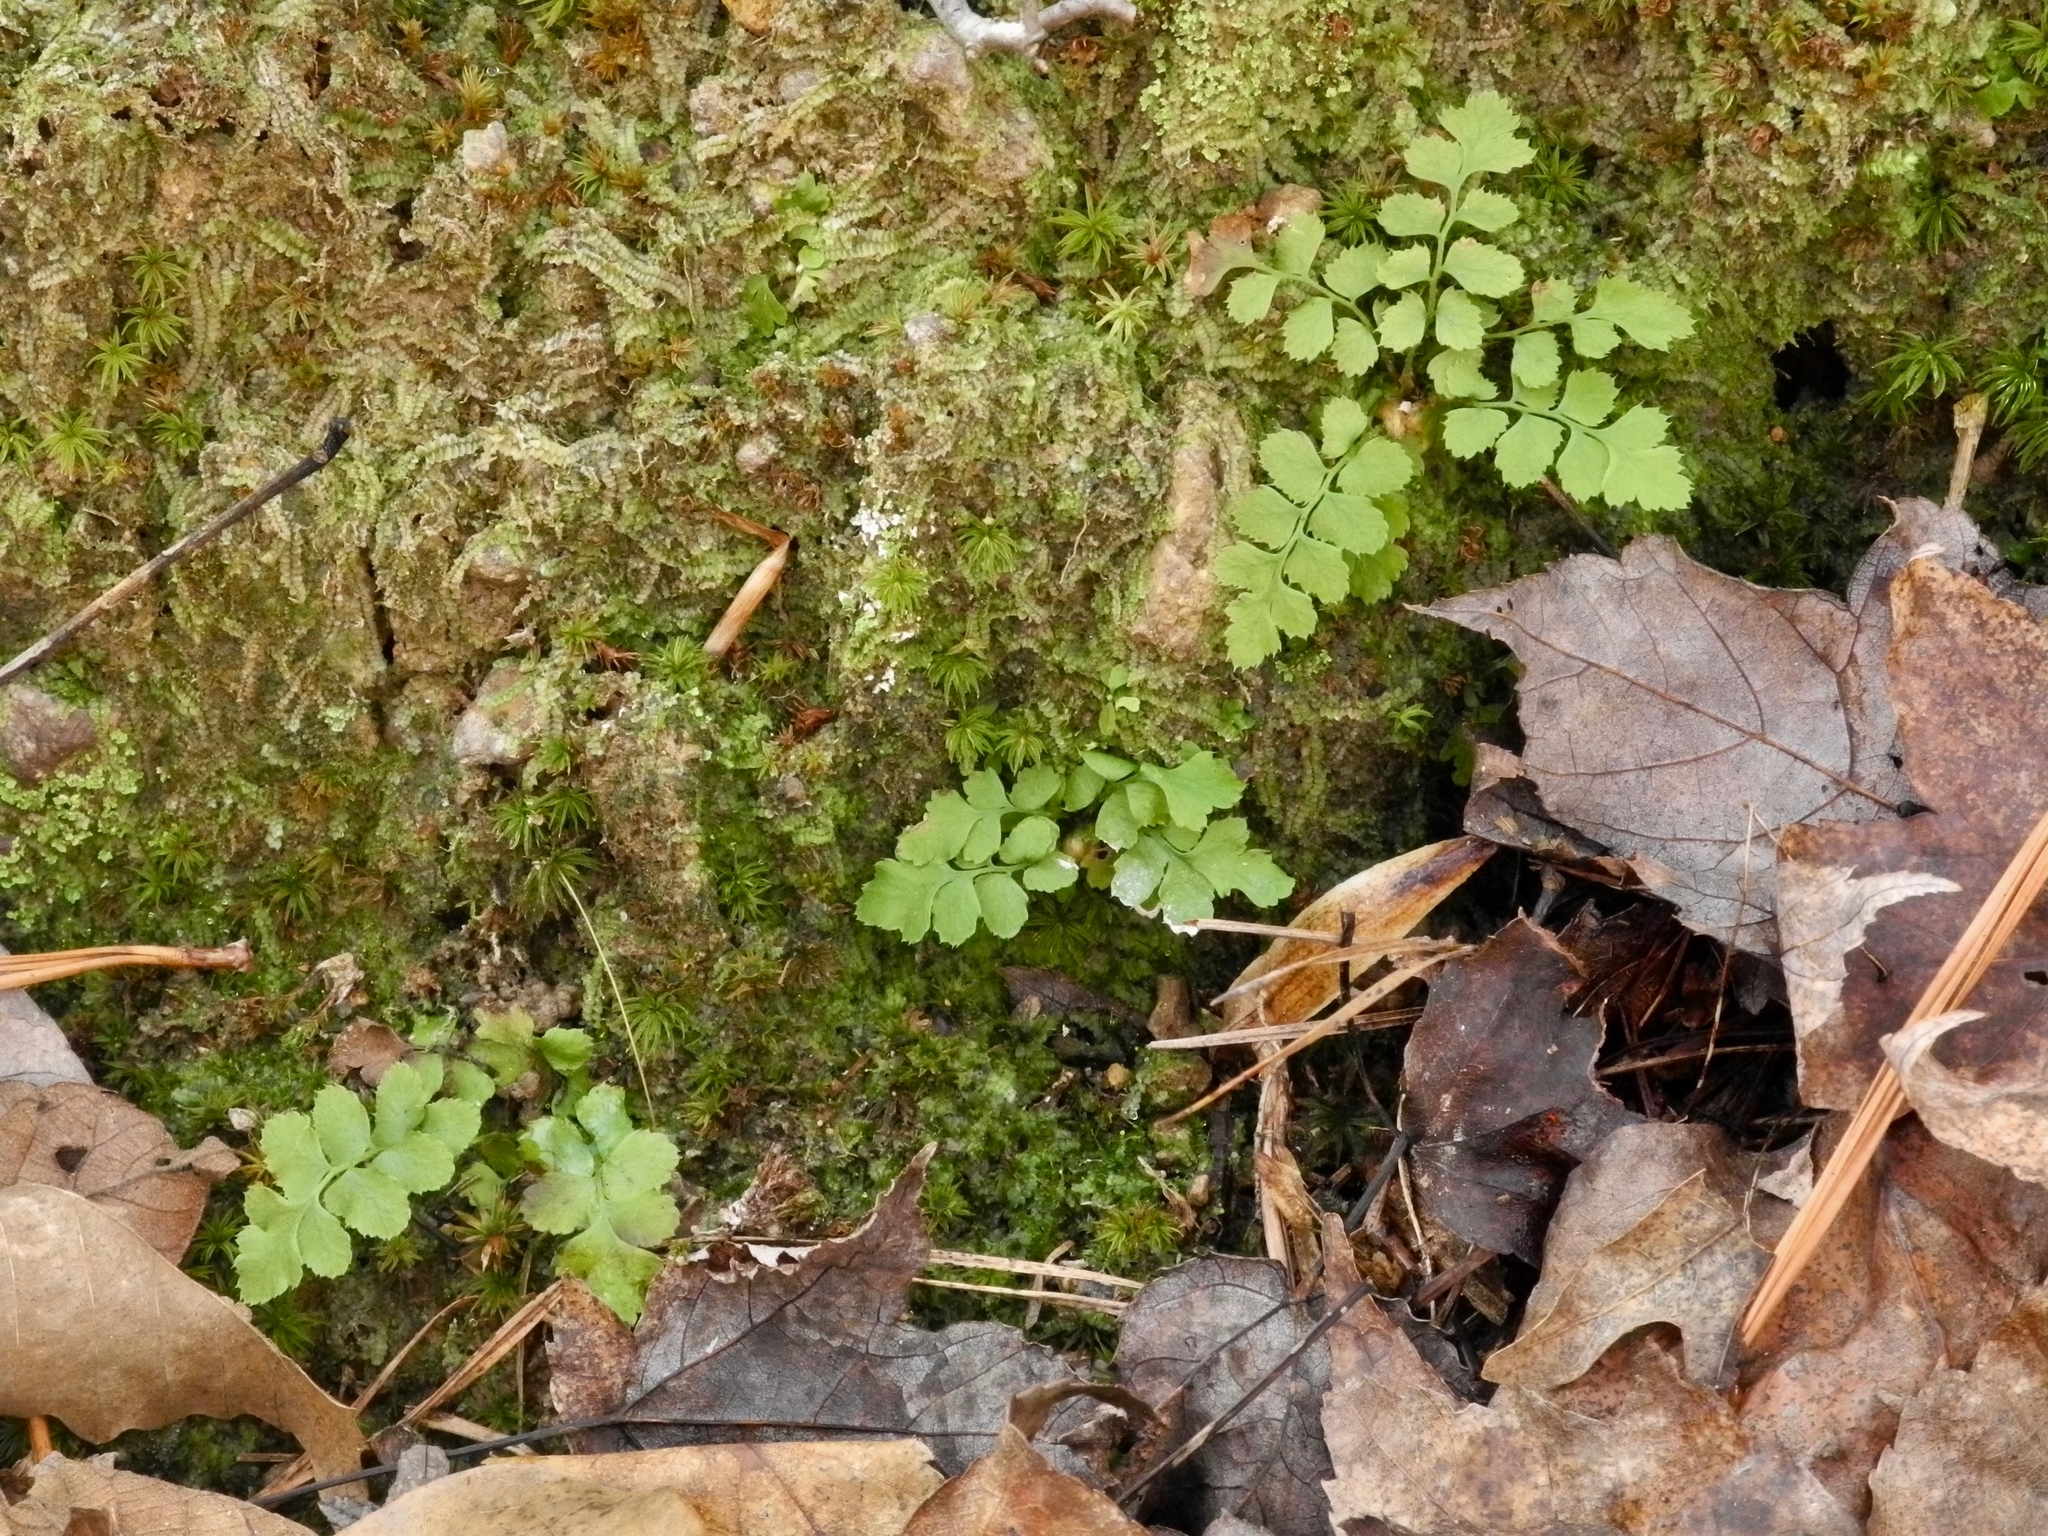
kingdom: Plantae
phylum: Tracheophyta
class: Polypodiopsida
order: Polypodiales
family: Dryopteridaceae
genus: Polystichum
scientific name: Polystichum acrostichoides
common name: Christmas fern
